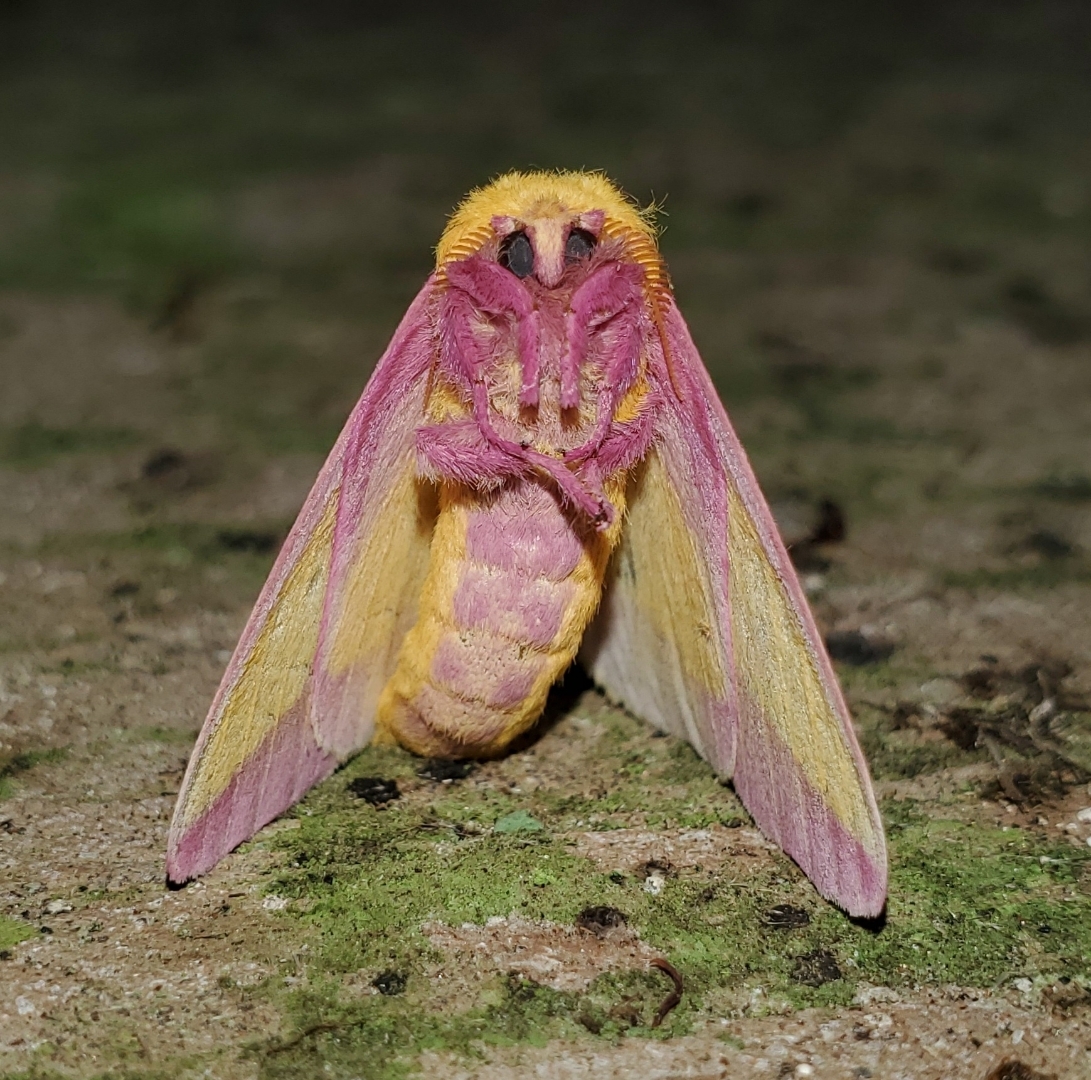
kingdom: Animalia
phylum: Arthropoda
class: Insecta
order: Lepidoptera
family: Saturniidae
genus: Dryocampa
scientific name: Dryocampa rubicunda
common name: Rosy maple moth
